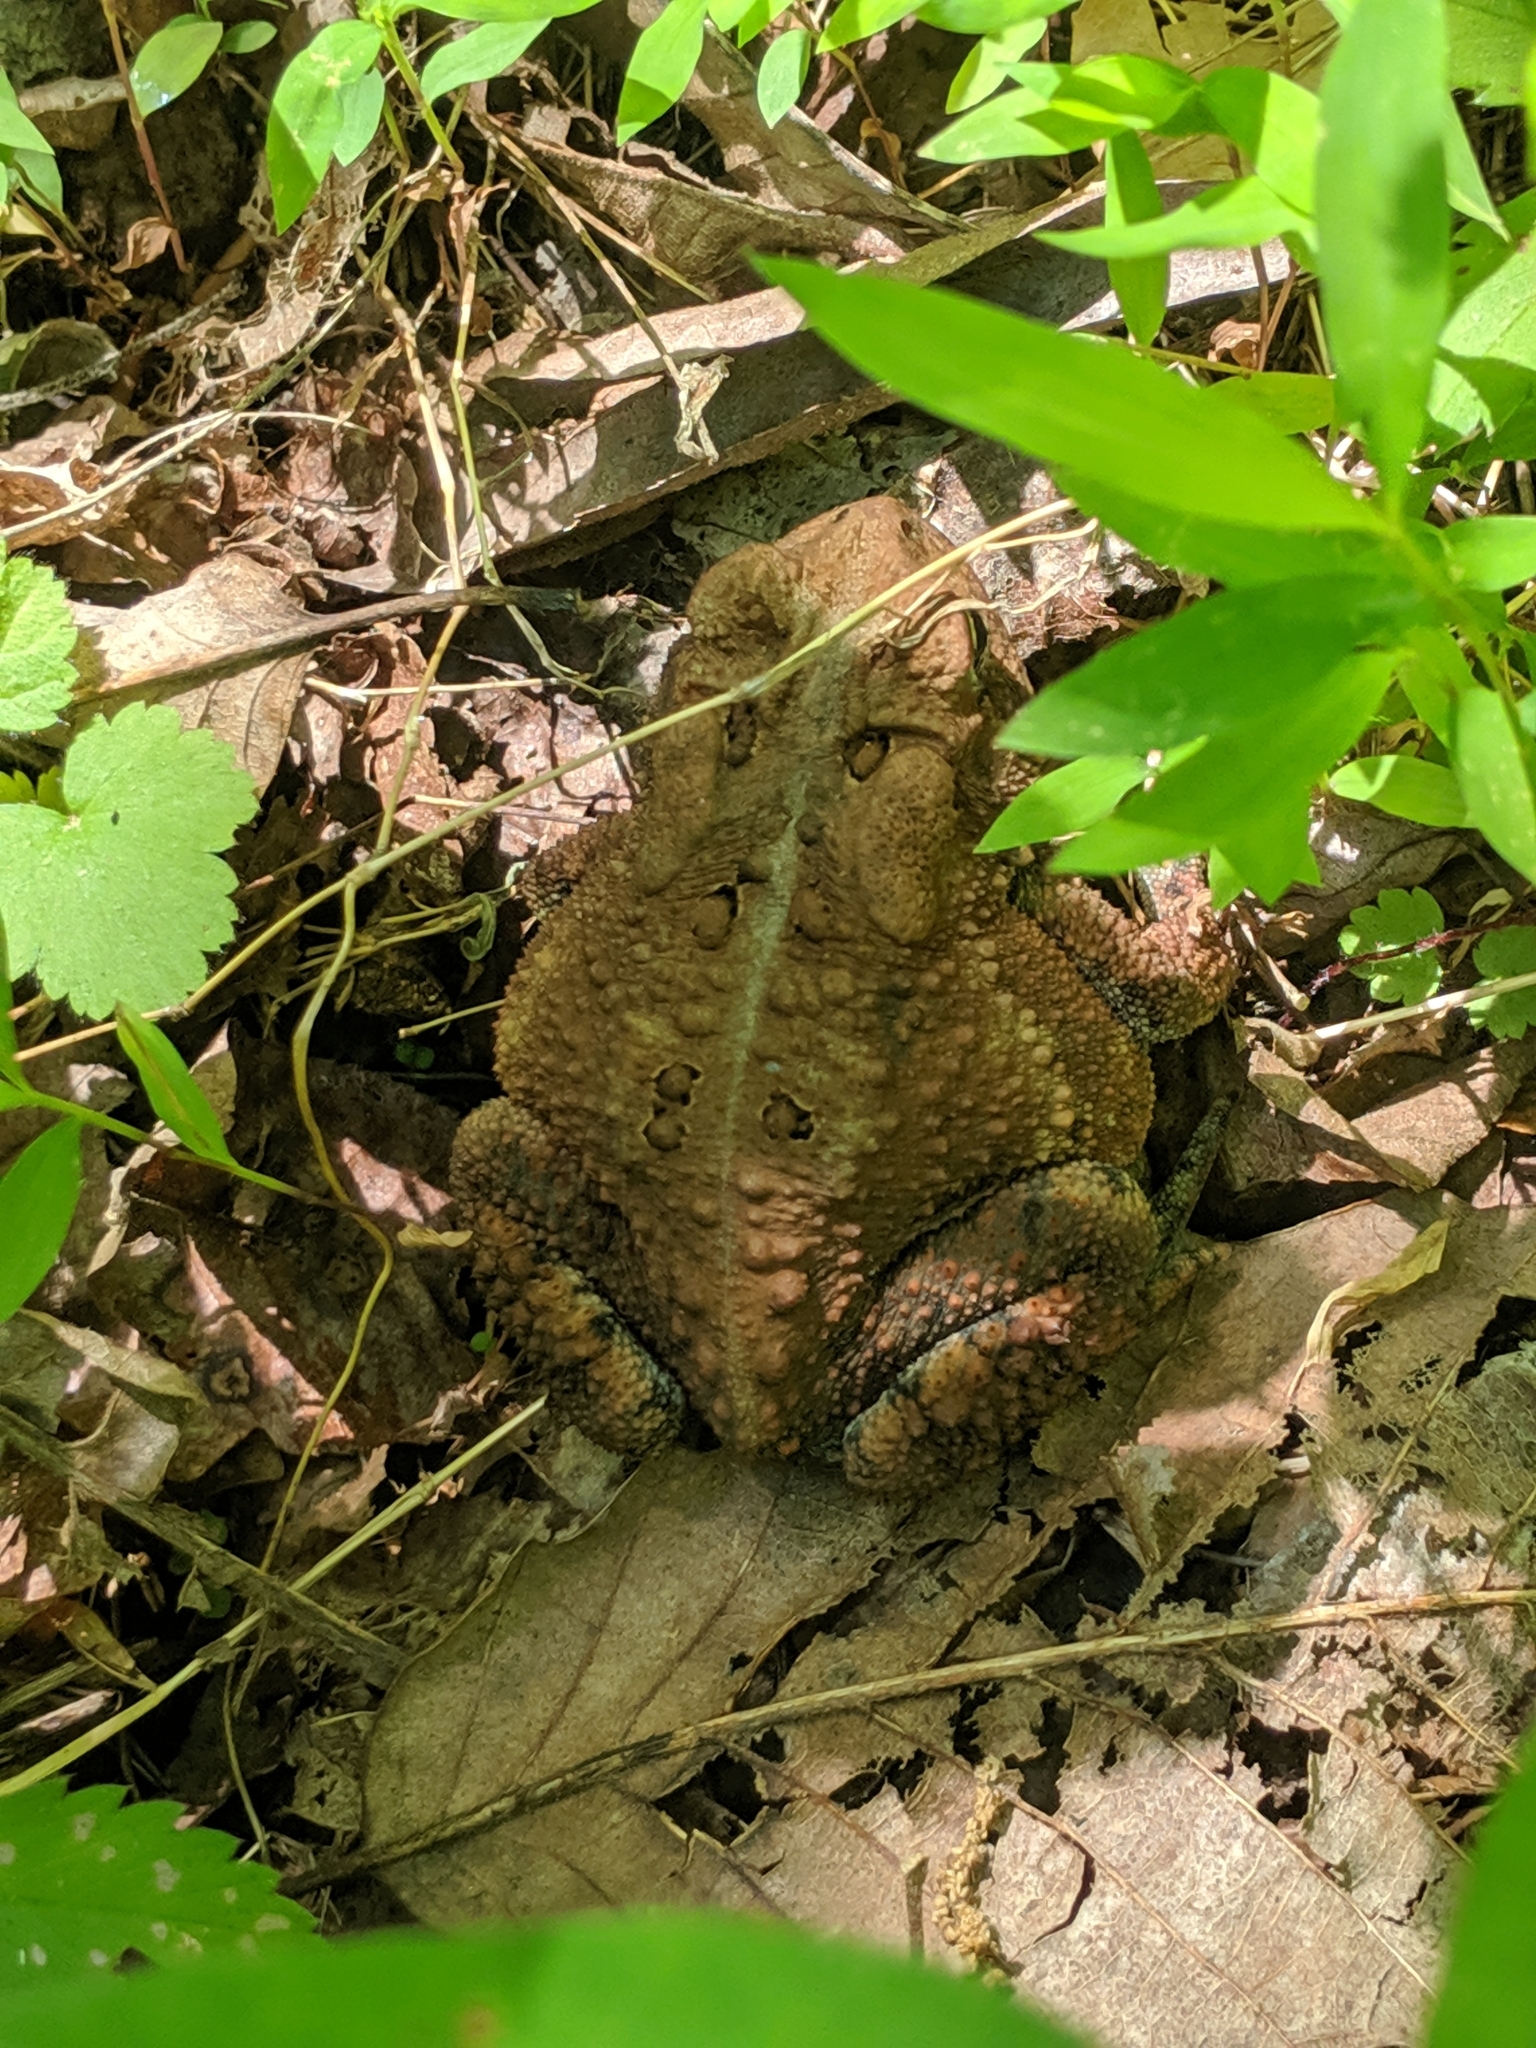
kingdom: Animalia
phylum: Chordata
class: Amphibia
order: Anura
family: Bufonidae
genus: Anaxyrus
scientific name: Anaxyrus americanus
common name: American toad
